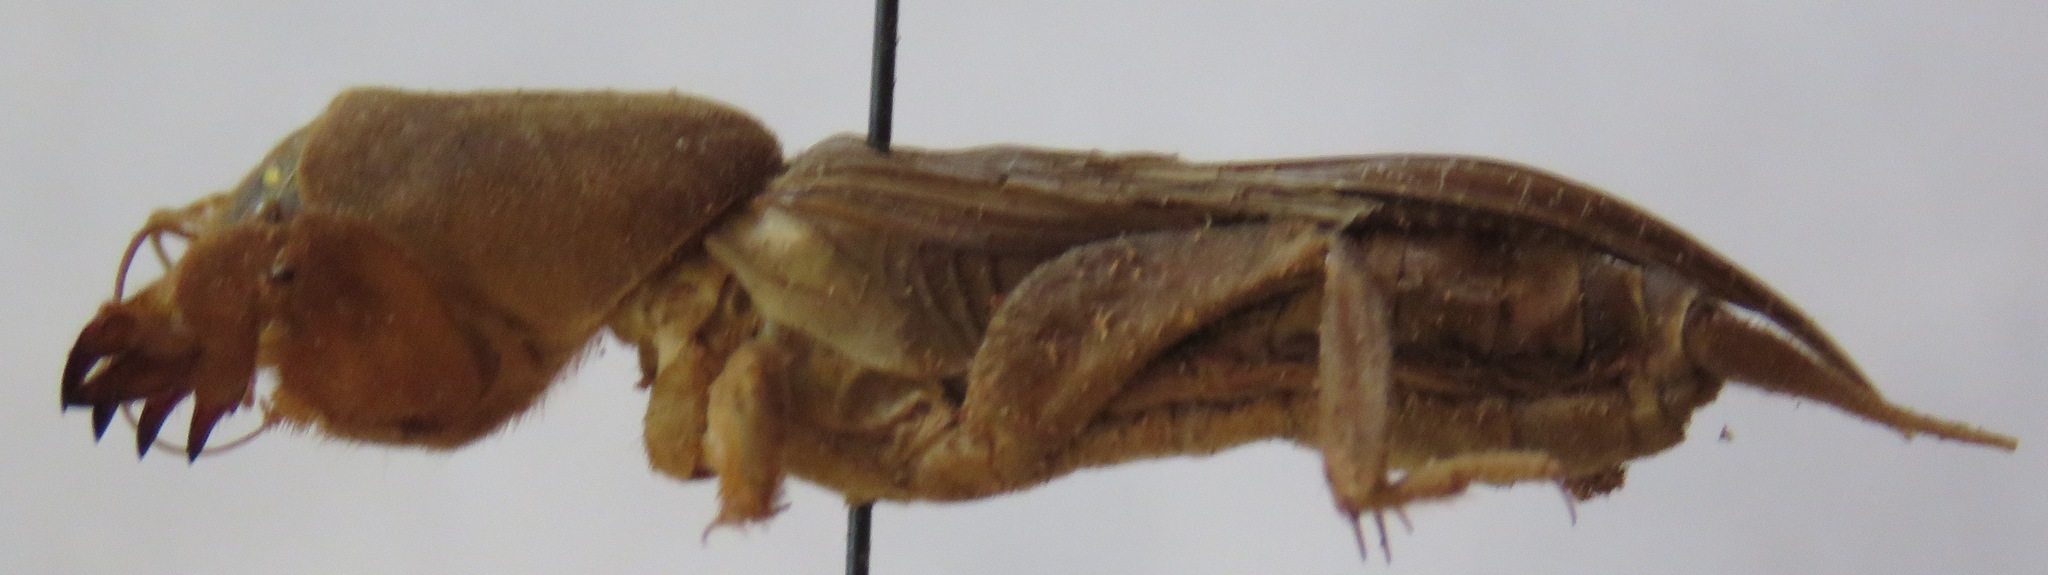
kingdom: Animalia
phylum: Arthropoda
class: Insecta
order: Orthoptera
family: Gryllotalpidae
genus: Neocurtilla
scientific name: Neocurtilla hexadactyla
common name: Northern mole cricket
